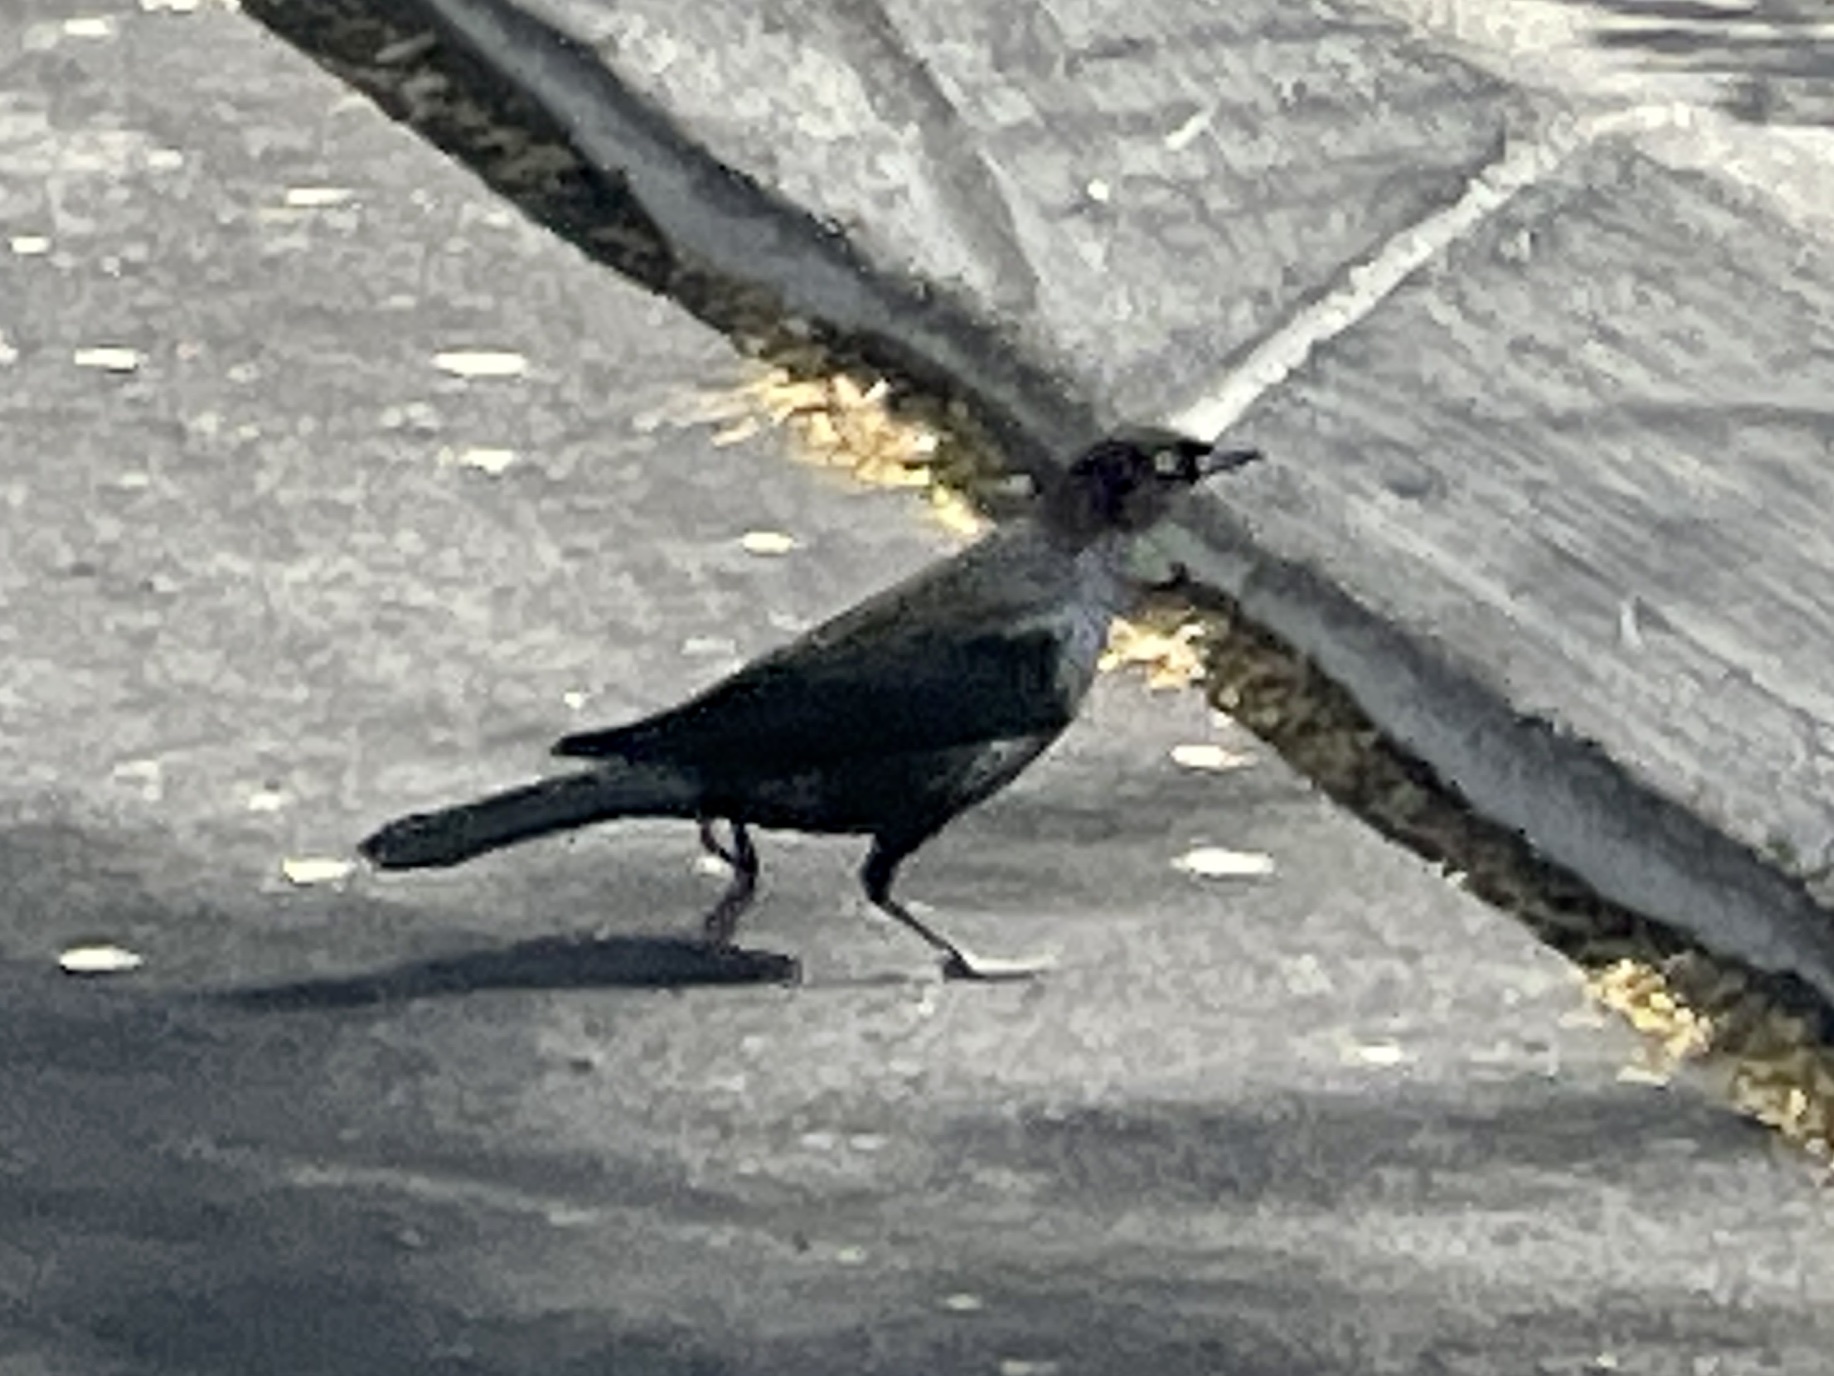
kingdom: Animalia
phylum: Chordata
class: Aves
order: Passeriformes
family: Icteridae
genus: Euphagus
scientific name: Euphagus cyanocephalus
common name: Brewer's blackbird
